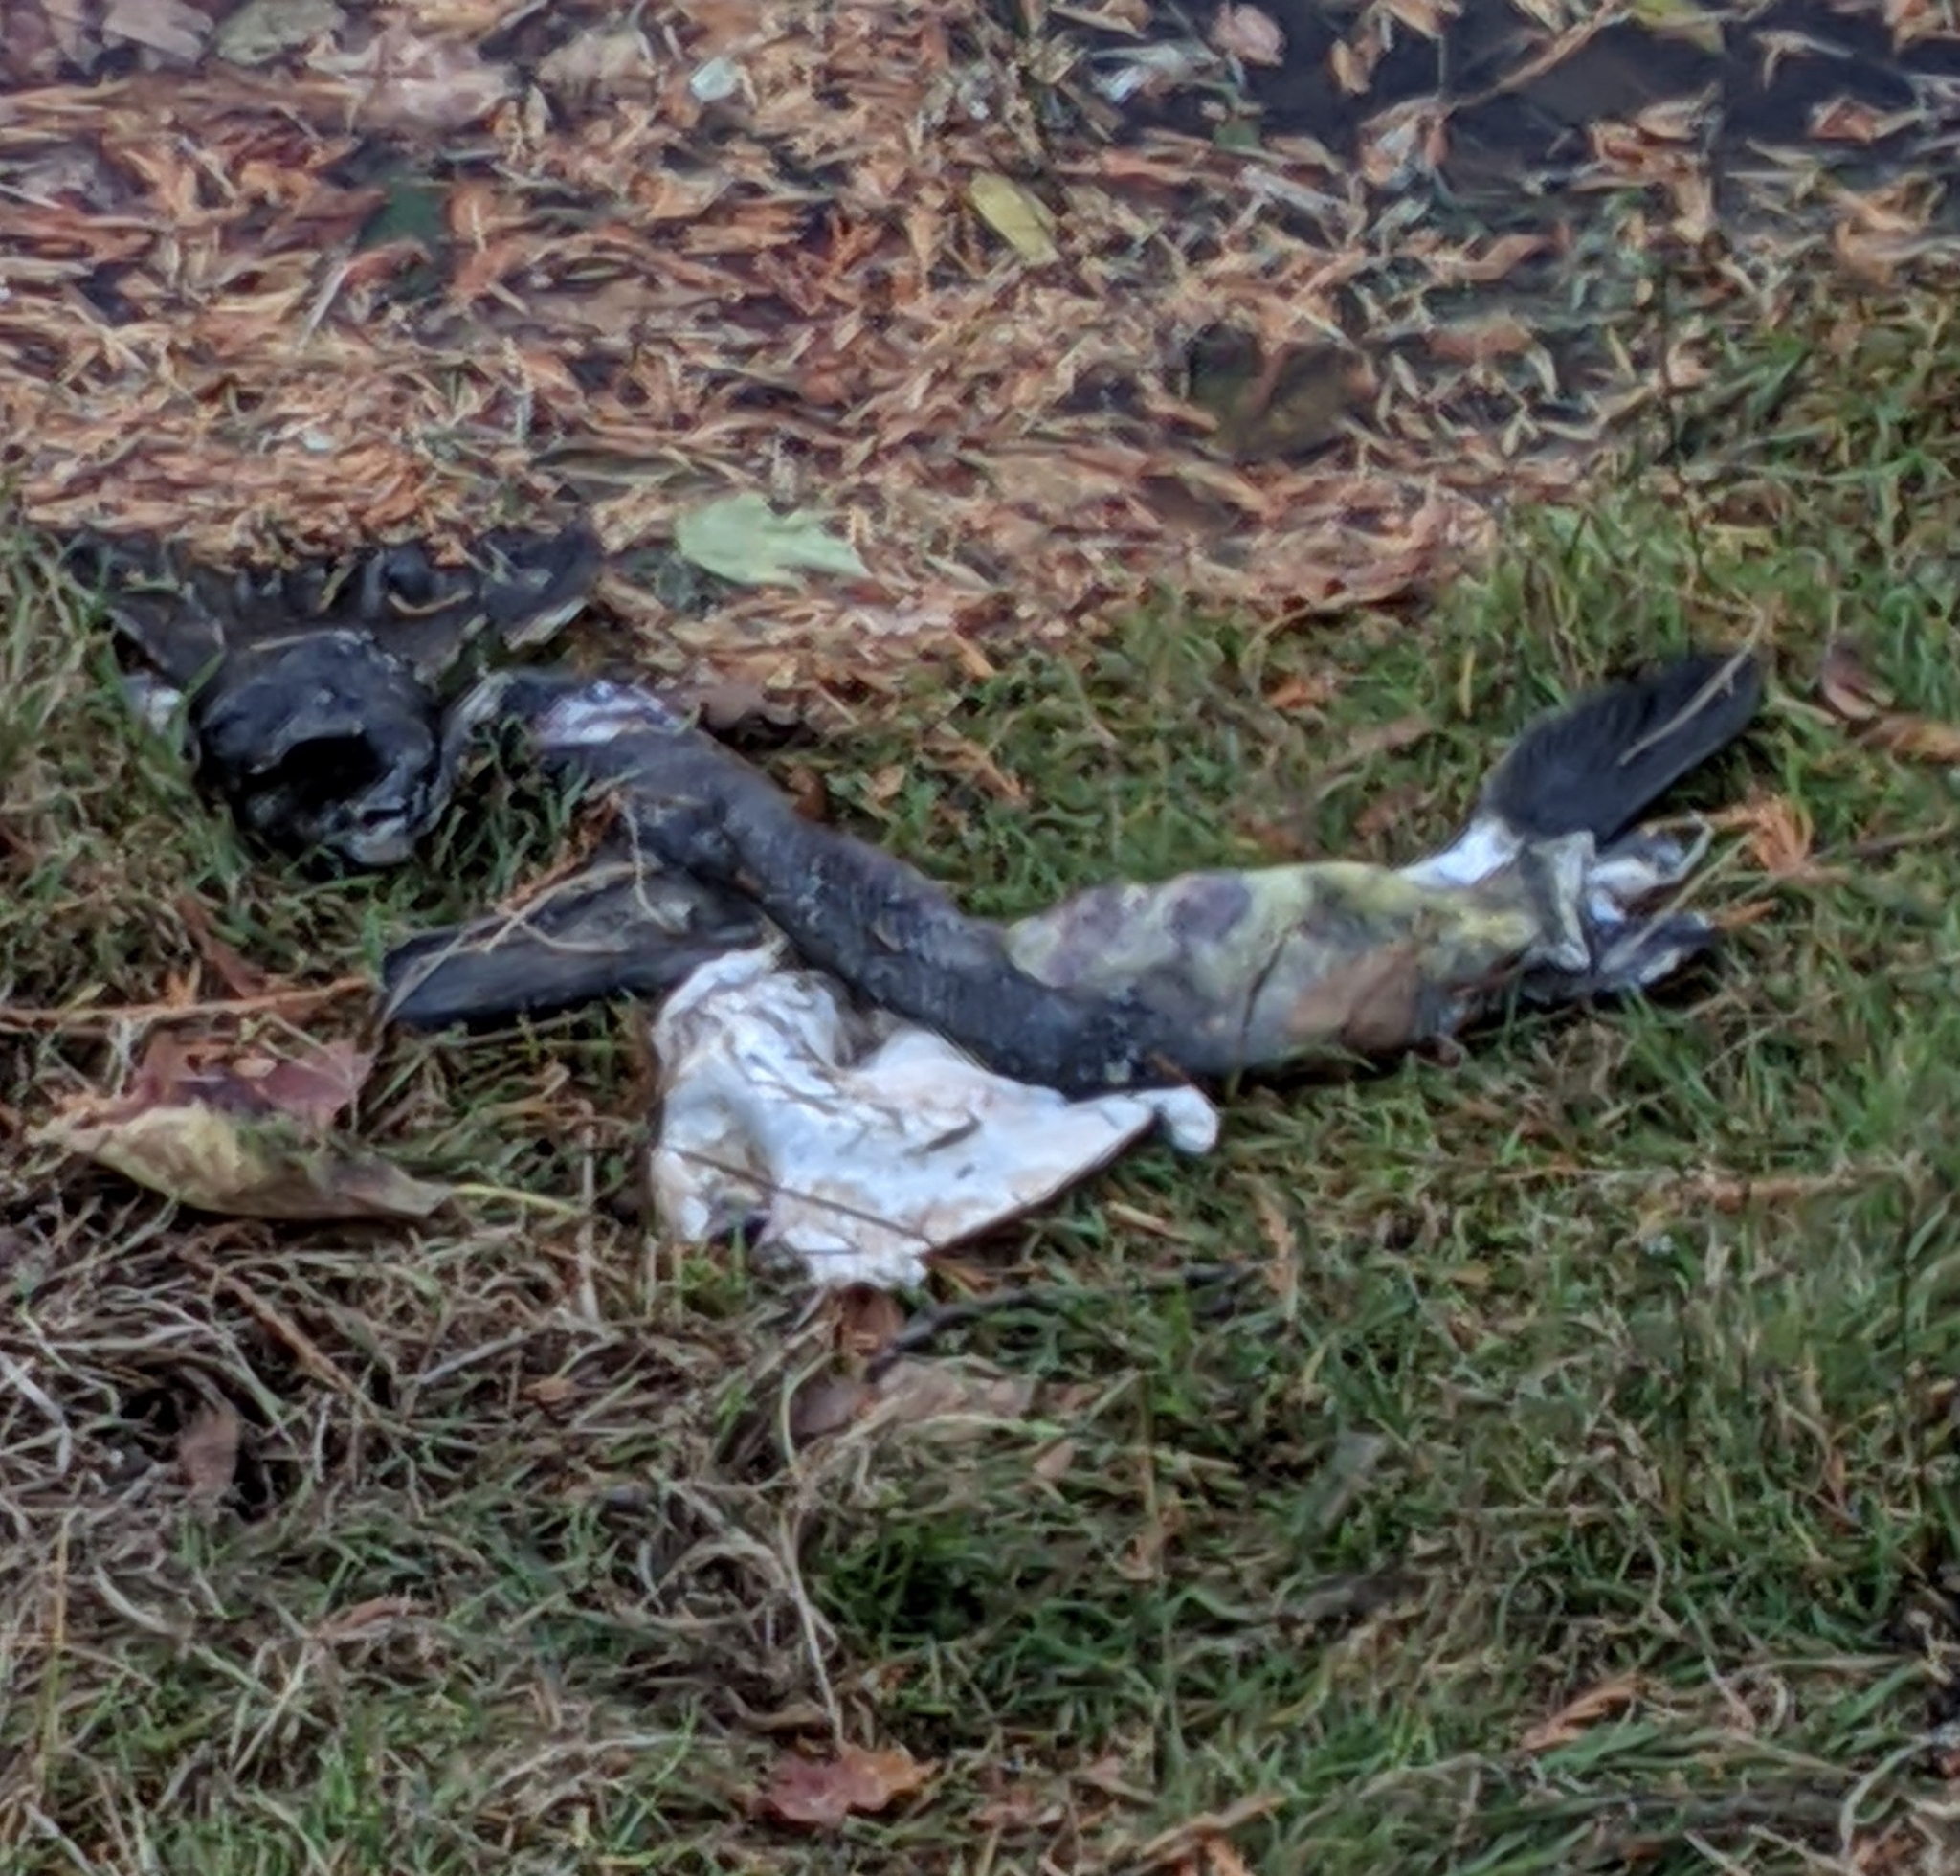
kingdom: Animalia
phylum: Chordata
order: Salmoniformes
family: Salmonidae
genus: Oncorhynchus
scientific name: Oncorhynchus keta
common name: Chum salmon
